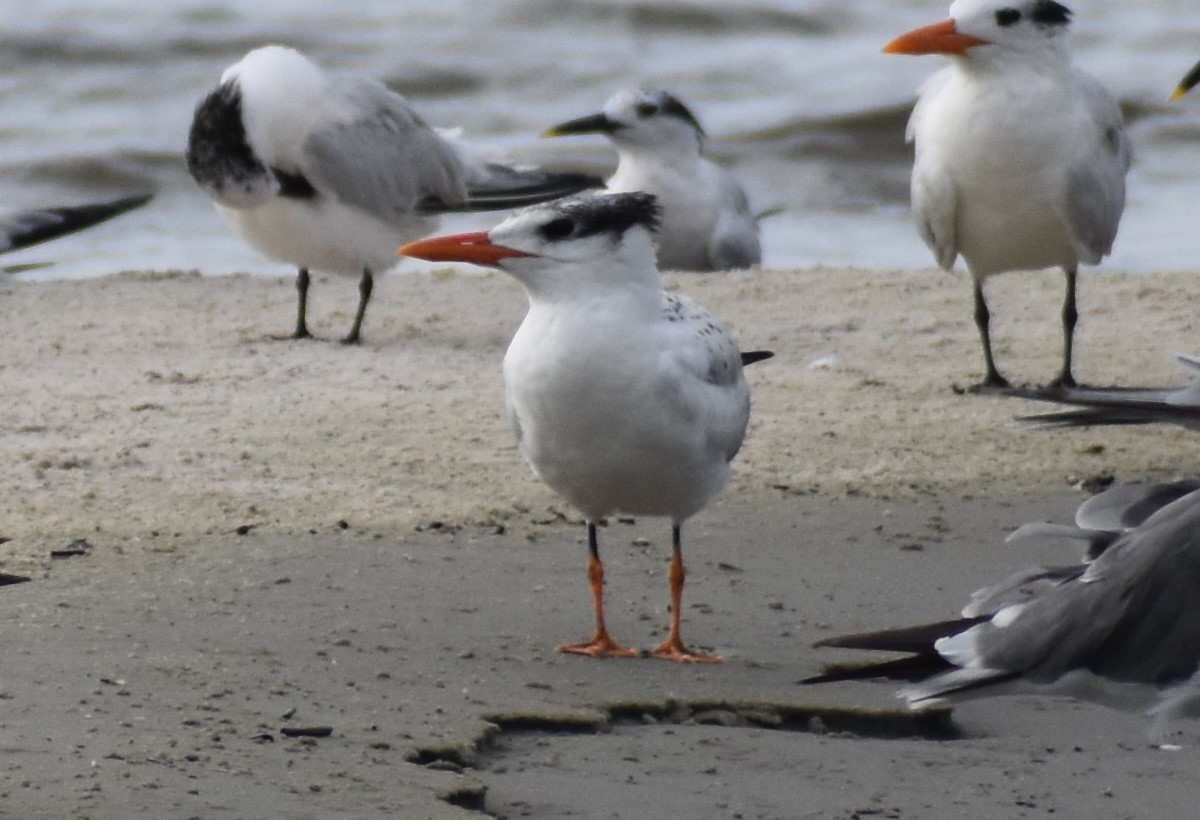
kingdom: Animalia
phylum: Chordata
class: Aves
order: Charadriiformes
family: Laridae
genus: Thalasseus
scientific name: Thalasseus maximus
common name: Royal tern
